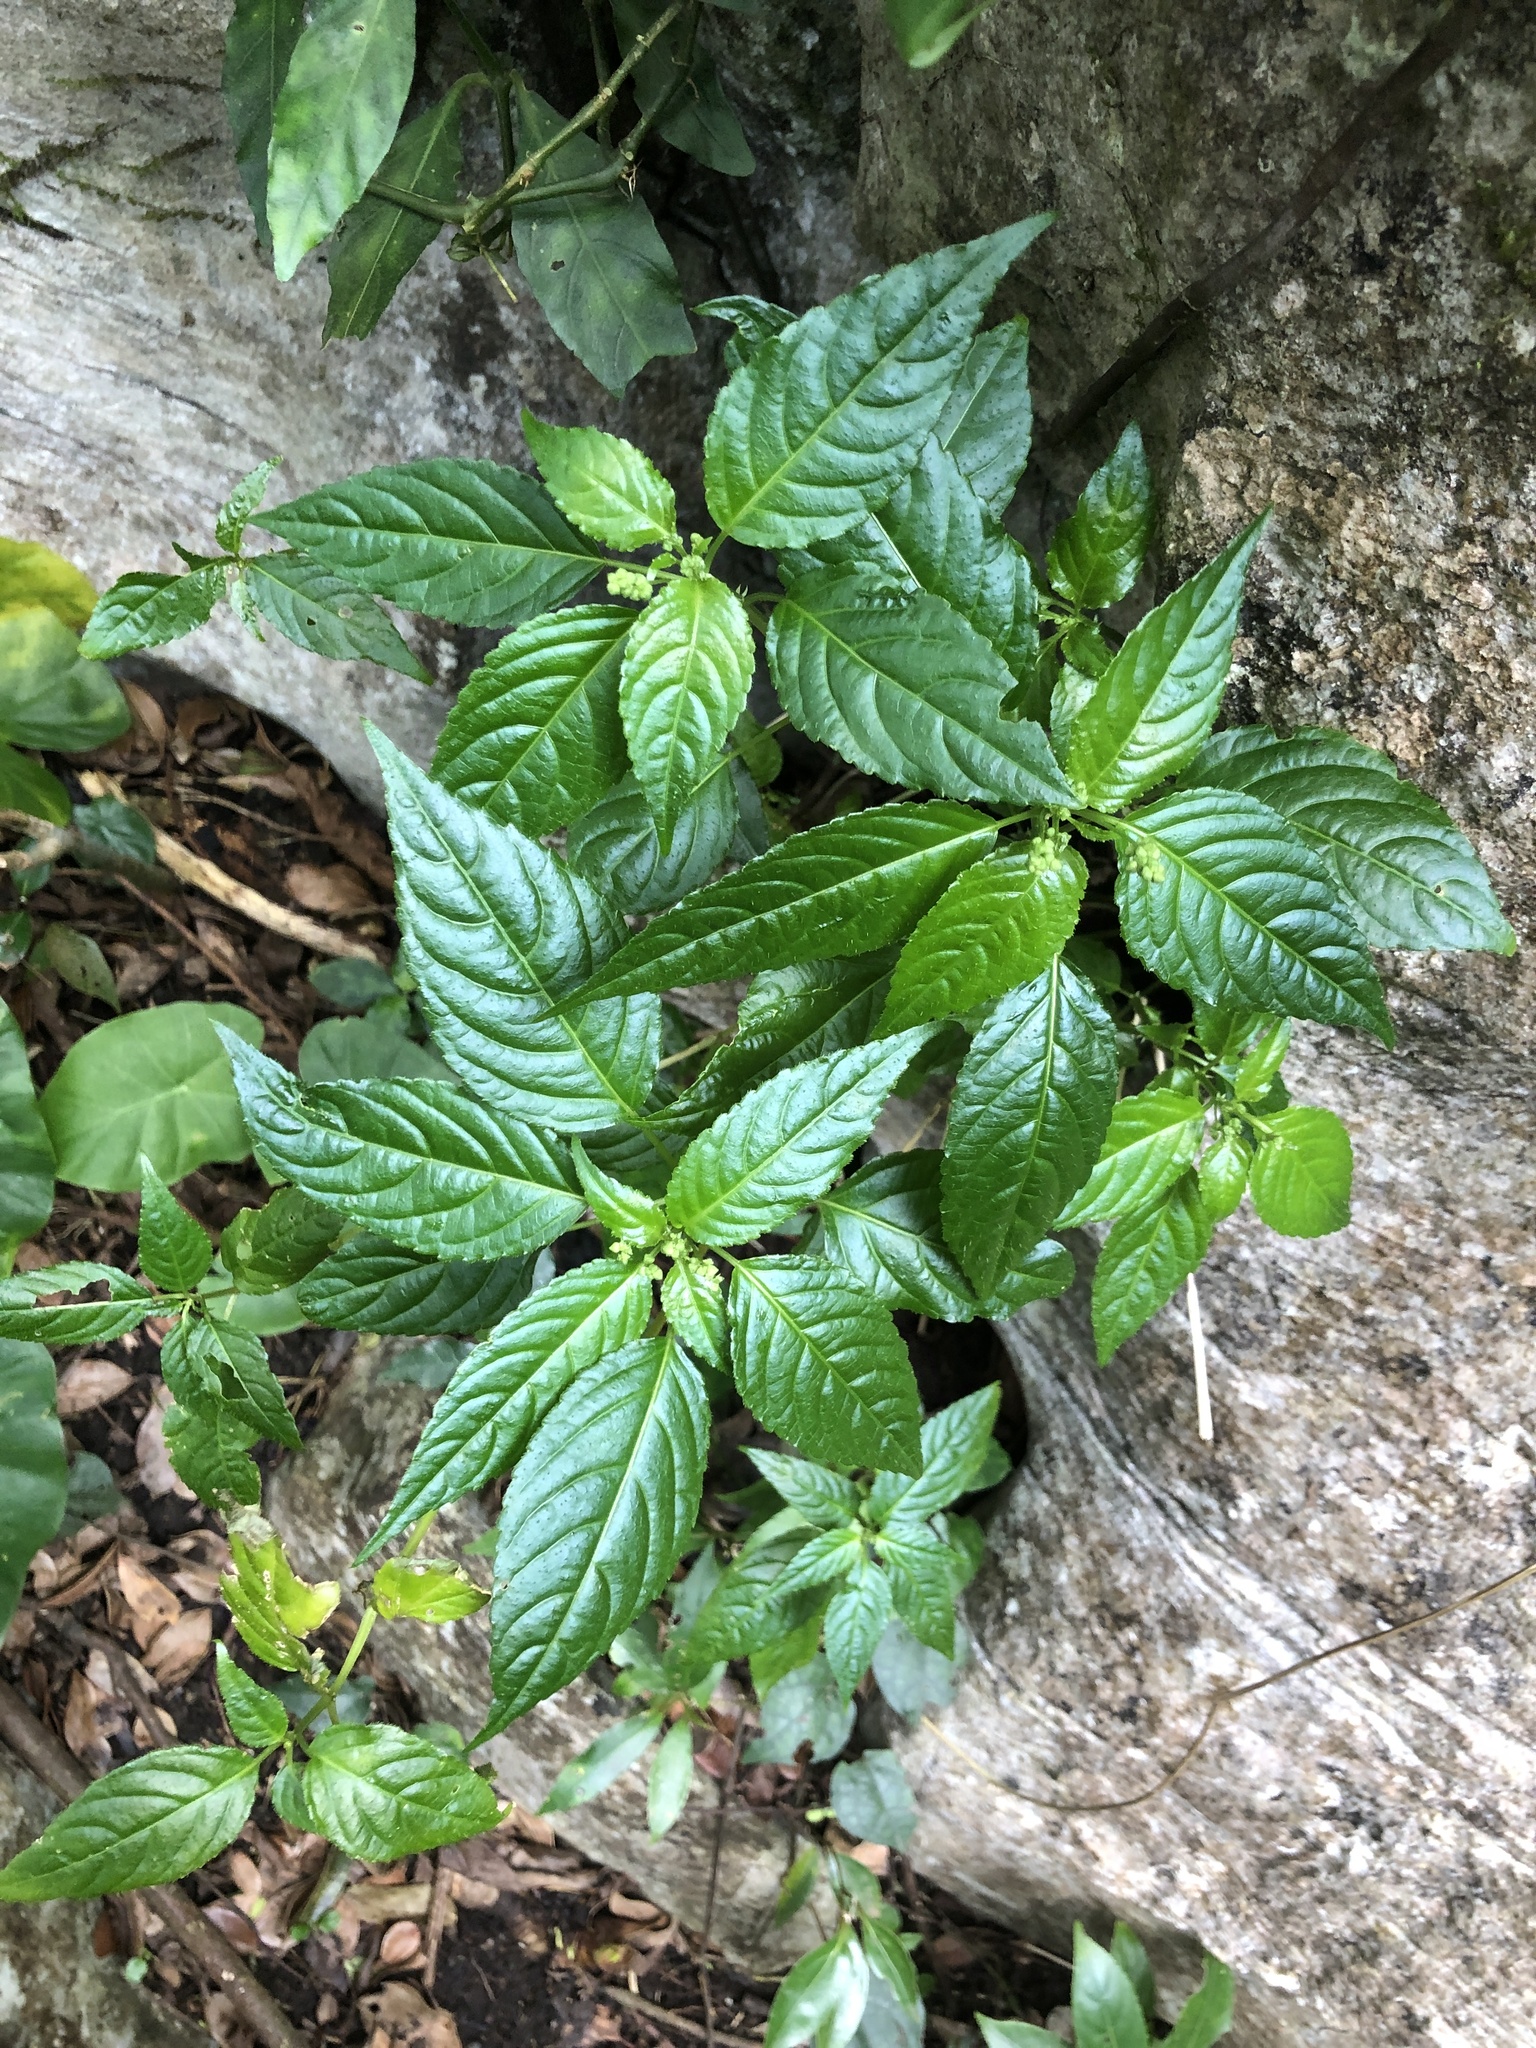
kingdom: Plantae
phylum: Tracheophyta
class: Magnoliopsida
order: Malpighiales
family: Euphorbiaceae
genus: Mercurialis
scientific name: Mercurialis leiocarpa
